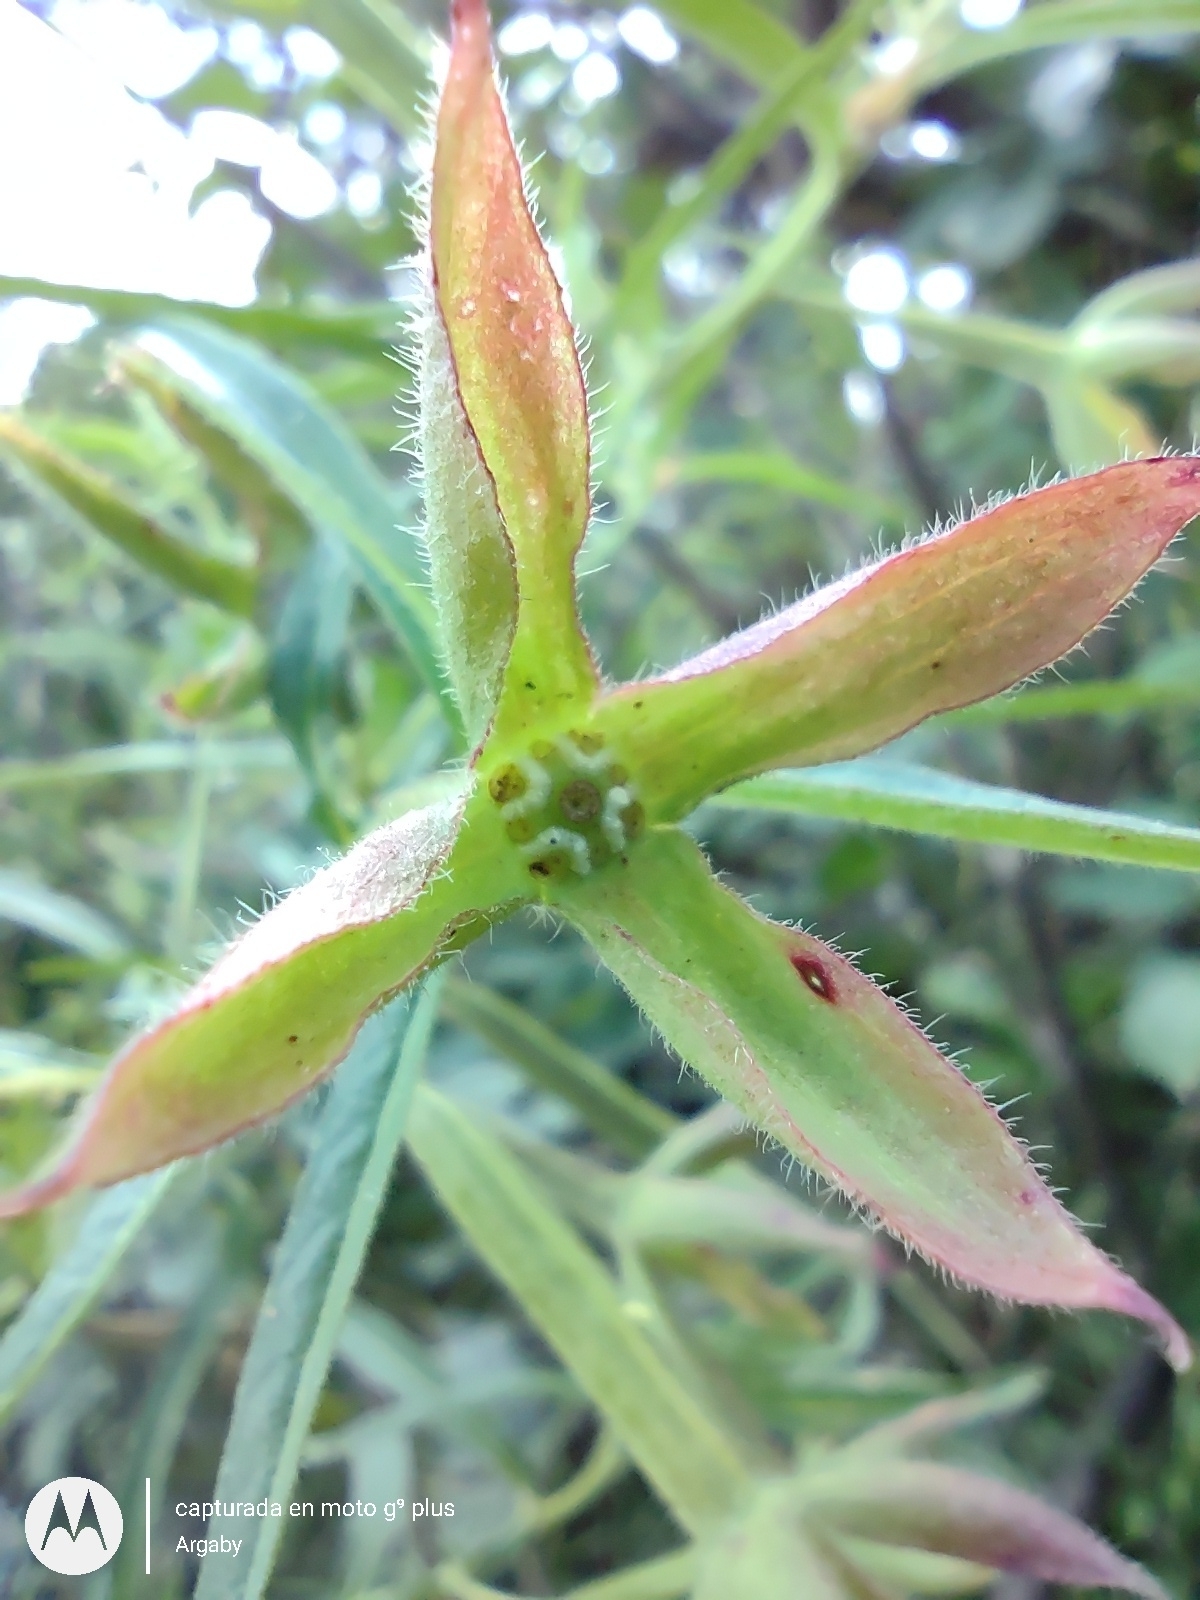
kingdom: Plantae
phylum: Tracheophyta
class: Magnoliopsida
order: Myrtales
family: Onagraceae
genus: Ludwigia
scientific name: Ludwigia bonariensis
